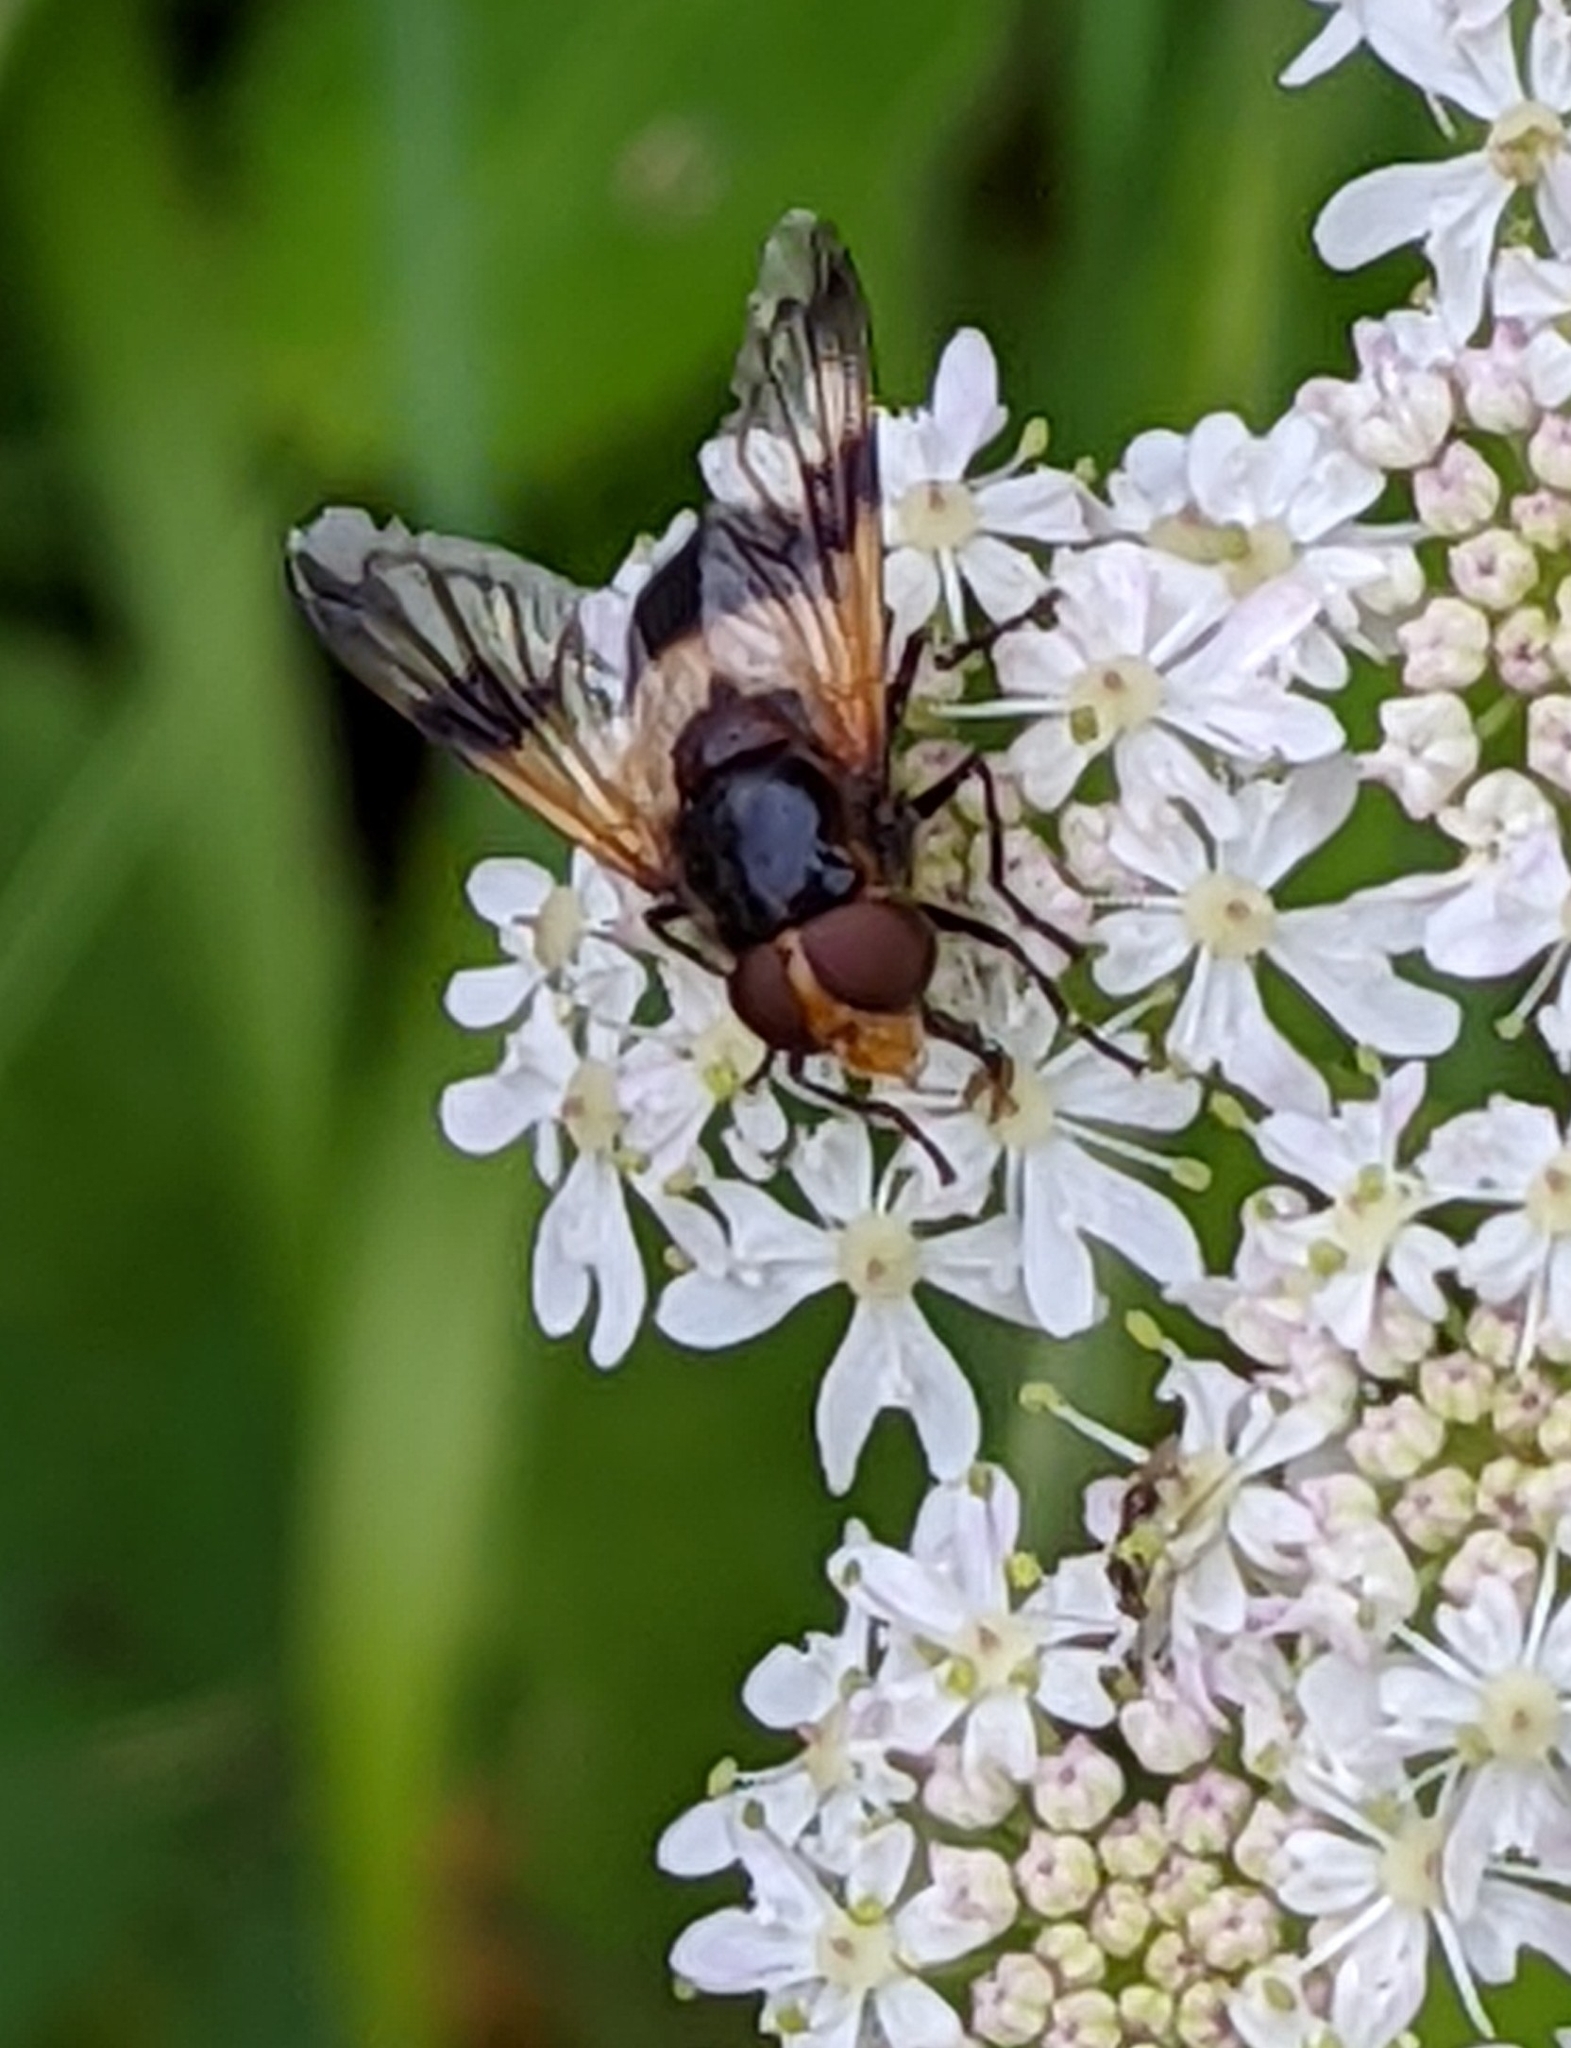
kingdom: Animalia
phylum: Arthropoda
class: Insecta
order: Diptera
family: Syrphidae
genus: Volucella
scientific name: Volucella pellucens
